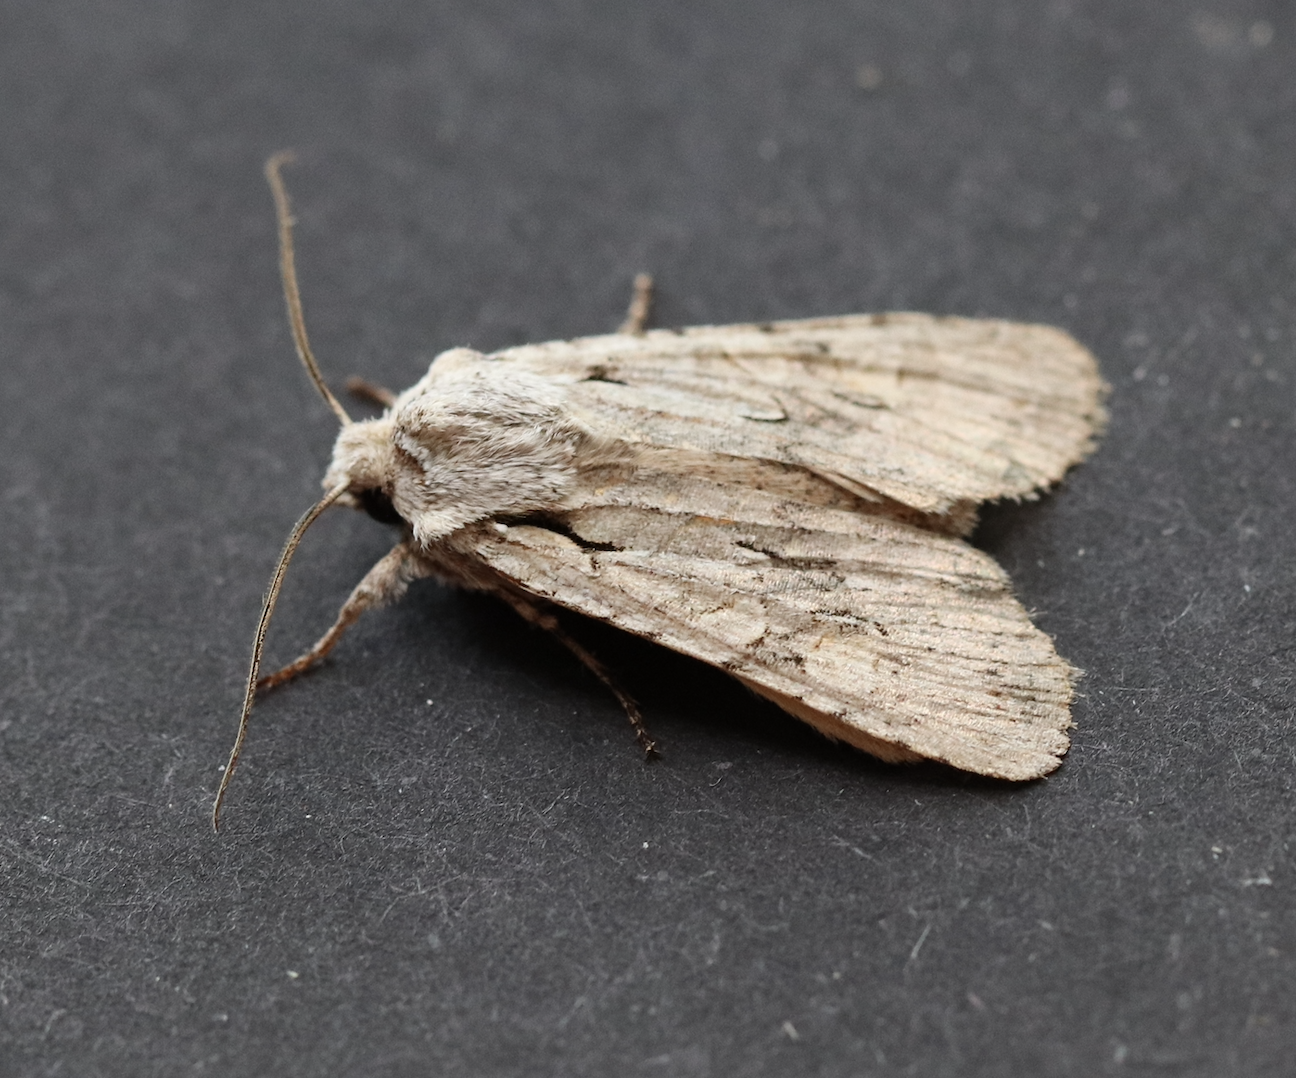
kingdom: Animalia
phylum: Arthropoda
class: Insecta
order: Lepidoptera
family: Noctuidae
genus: Lithophane
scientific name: Lithophane ornitopus
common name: Grey shoulder-knot
